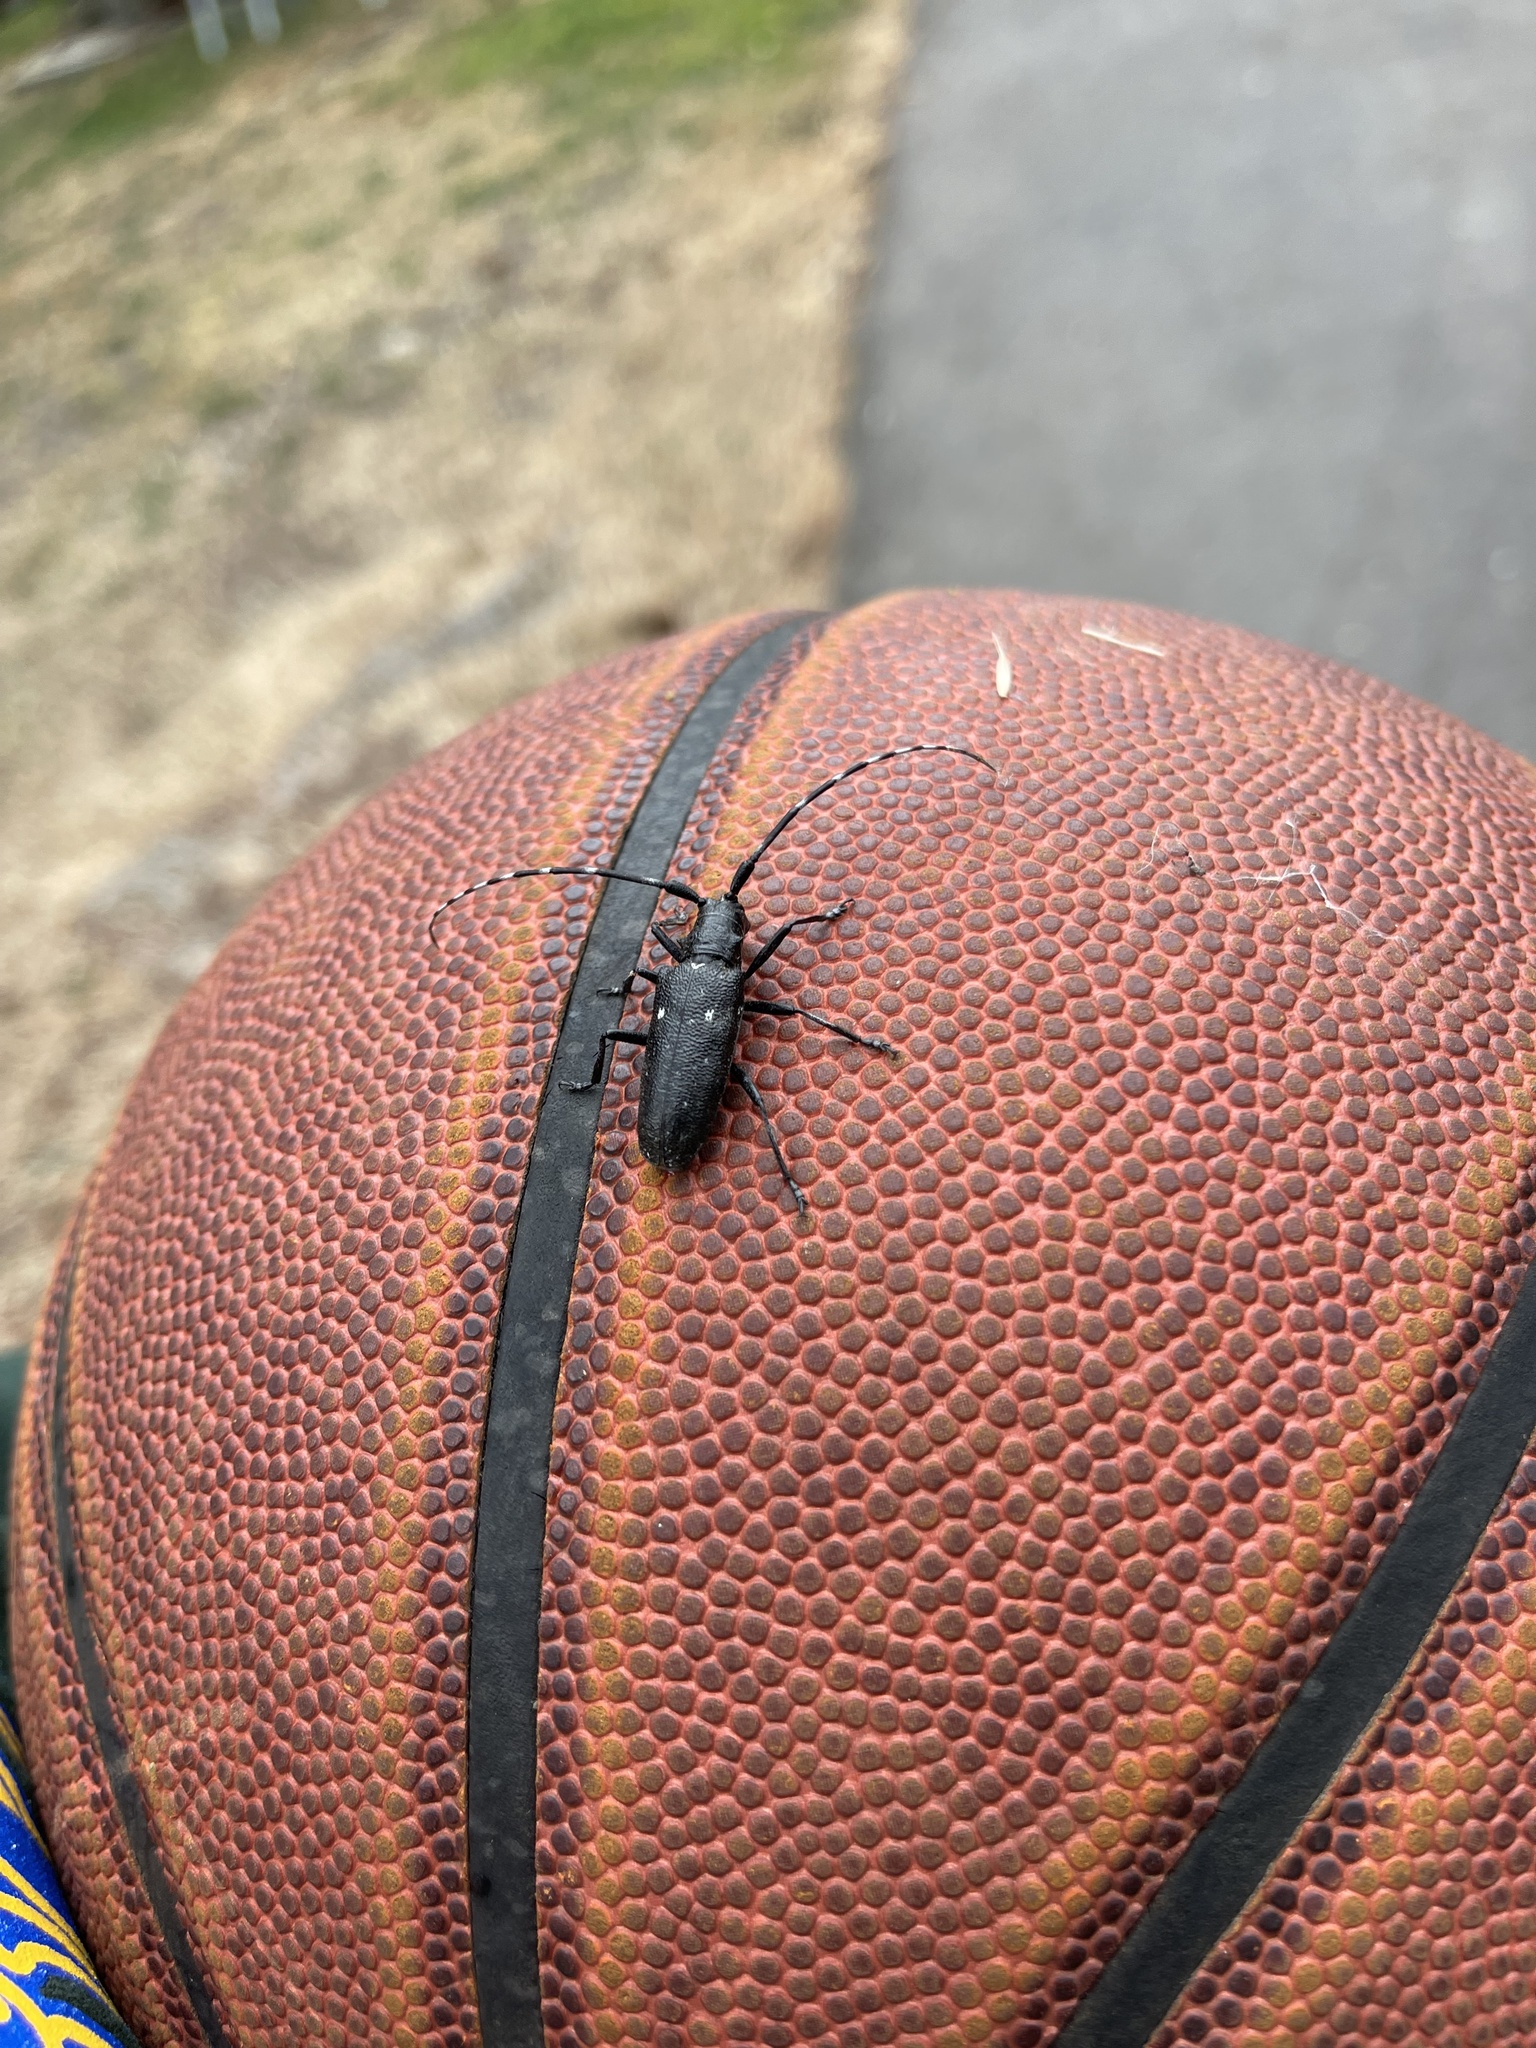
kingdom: Animalia
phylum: Arthropoda
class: Insecta
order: Coleoptera
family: Cerambycidae
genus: Monochamus
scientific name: Monochamus scutellatus
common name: White-spotted sawyer beetle
